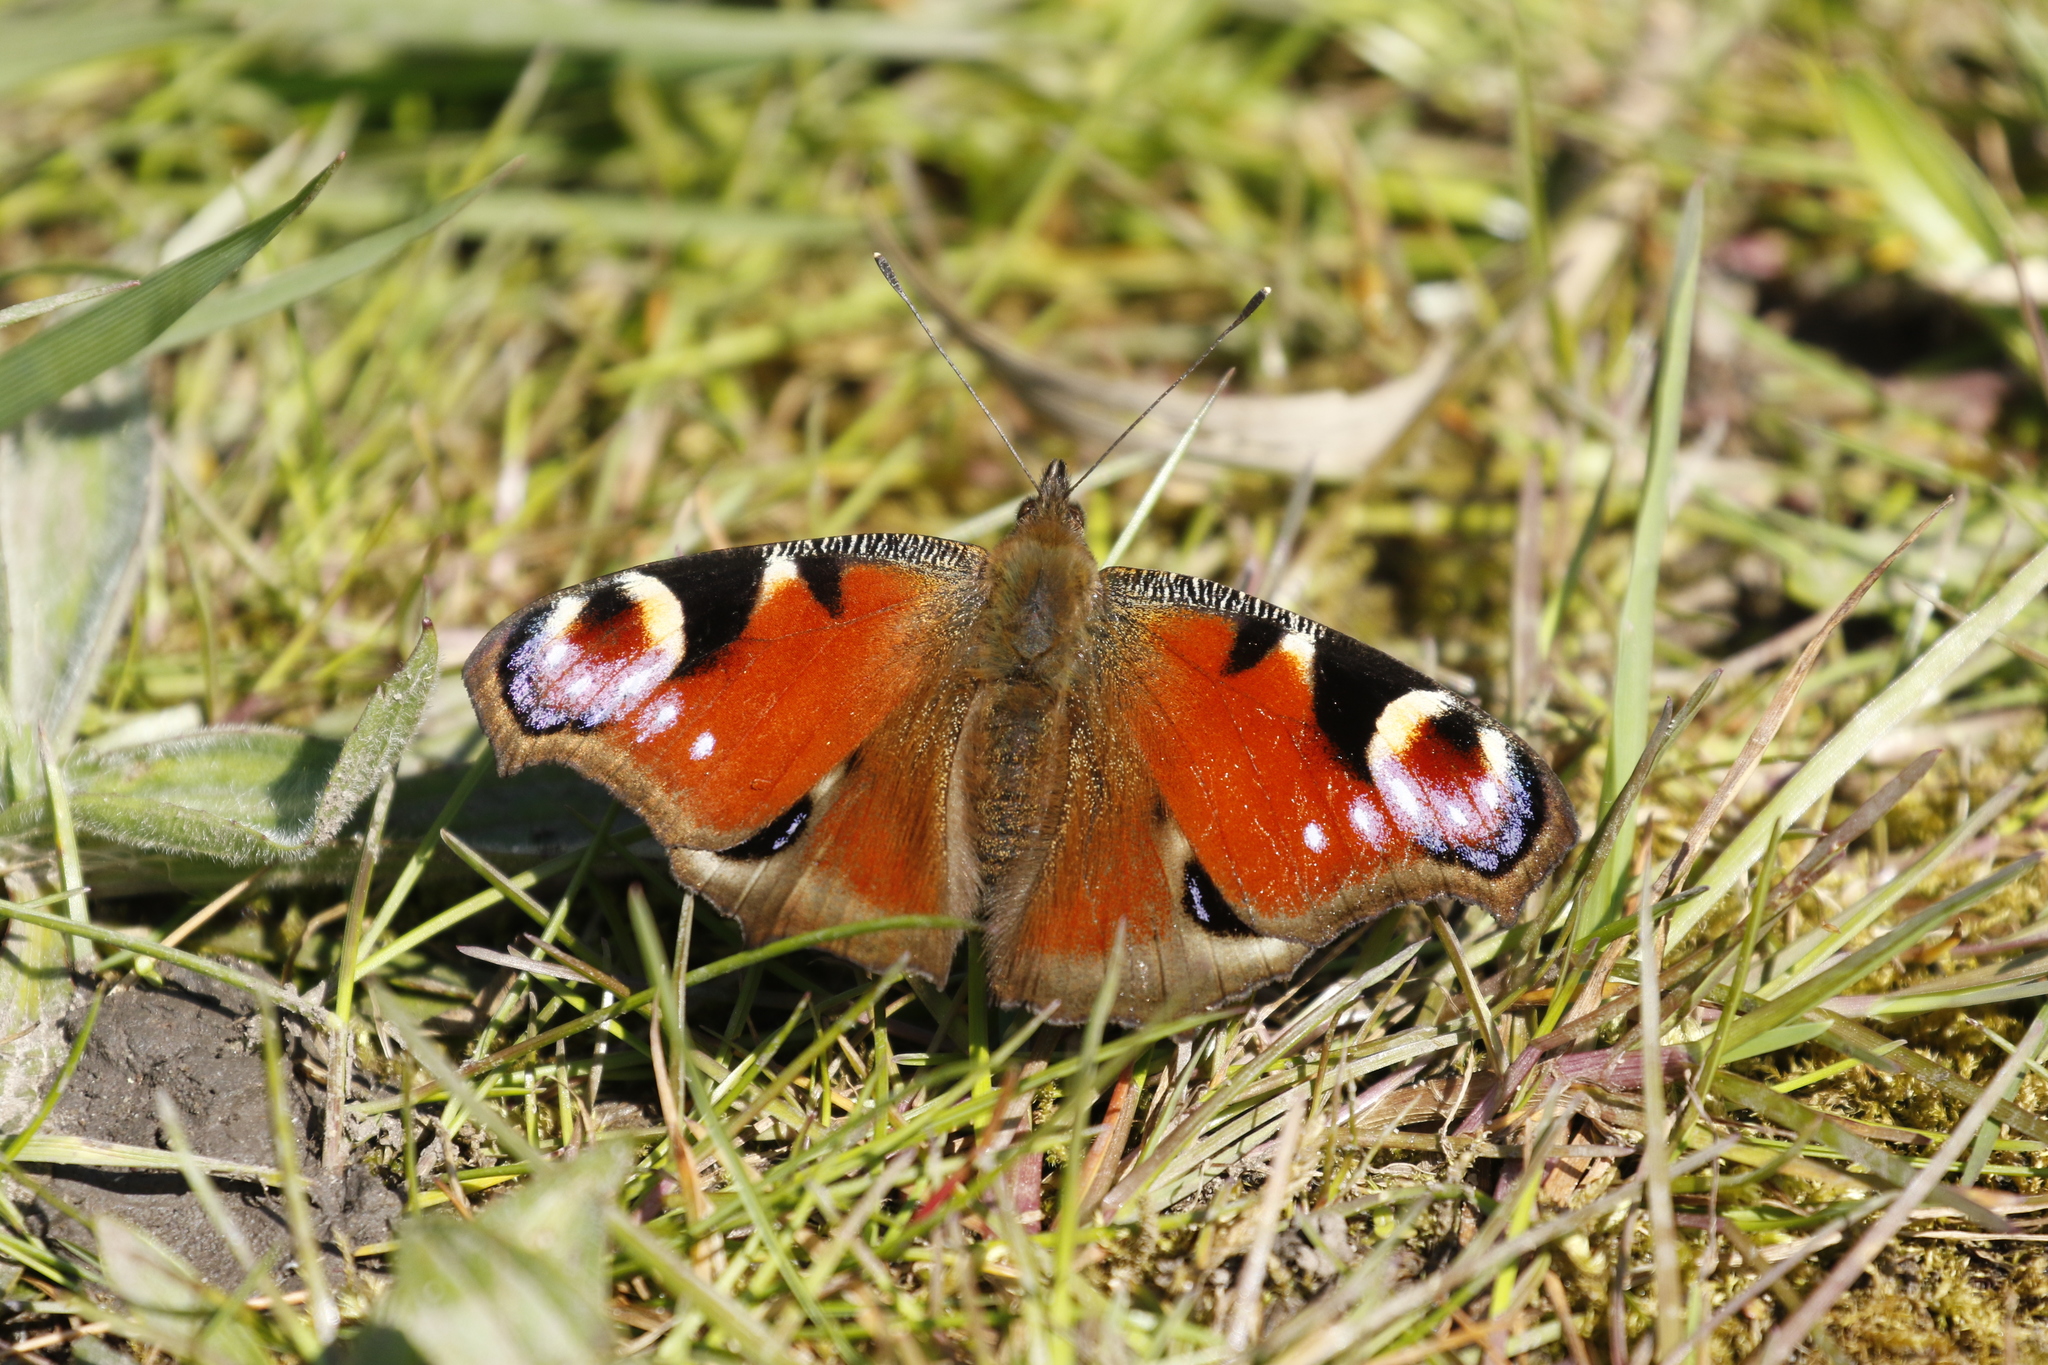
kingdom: Animalia
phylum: Arthropoda
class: Insecta
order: Lepidoptera
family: Nymphalidae
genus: Aglais
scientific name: Aglais io
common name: Peacock
